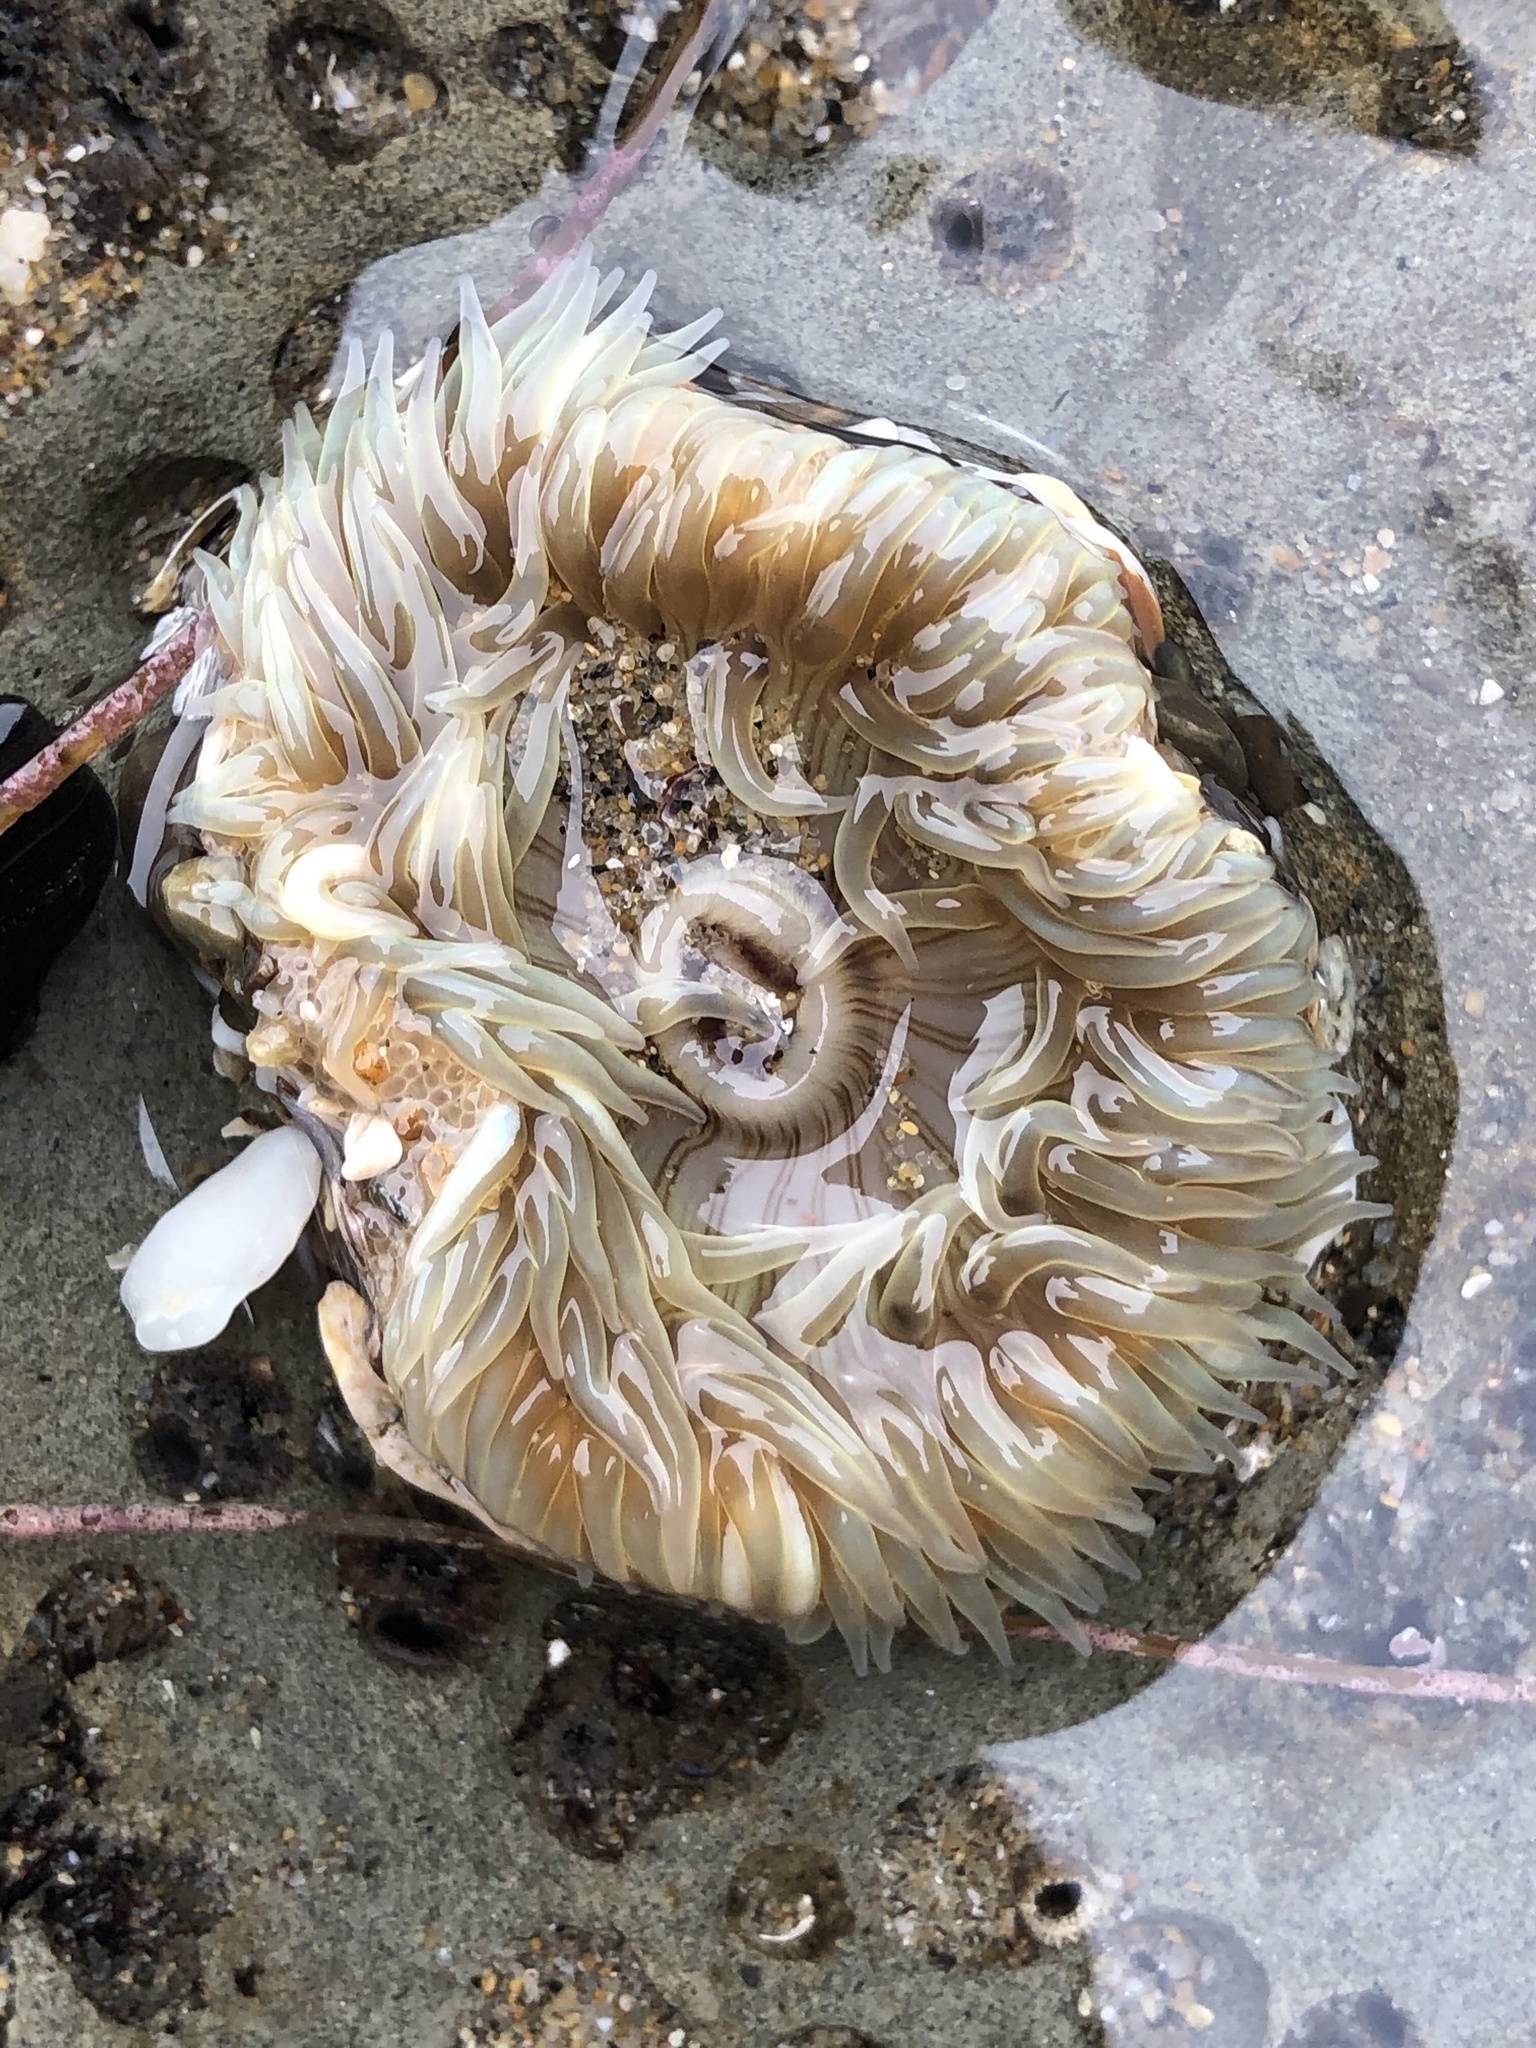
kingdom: Animalia
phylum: Cnidaria
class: Anthozoa
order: Actiniaria
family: Actiniidae
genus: Anthopleura
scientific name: Anthopleura sola
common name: Sun anemone
